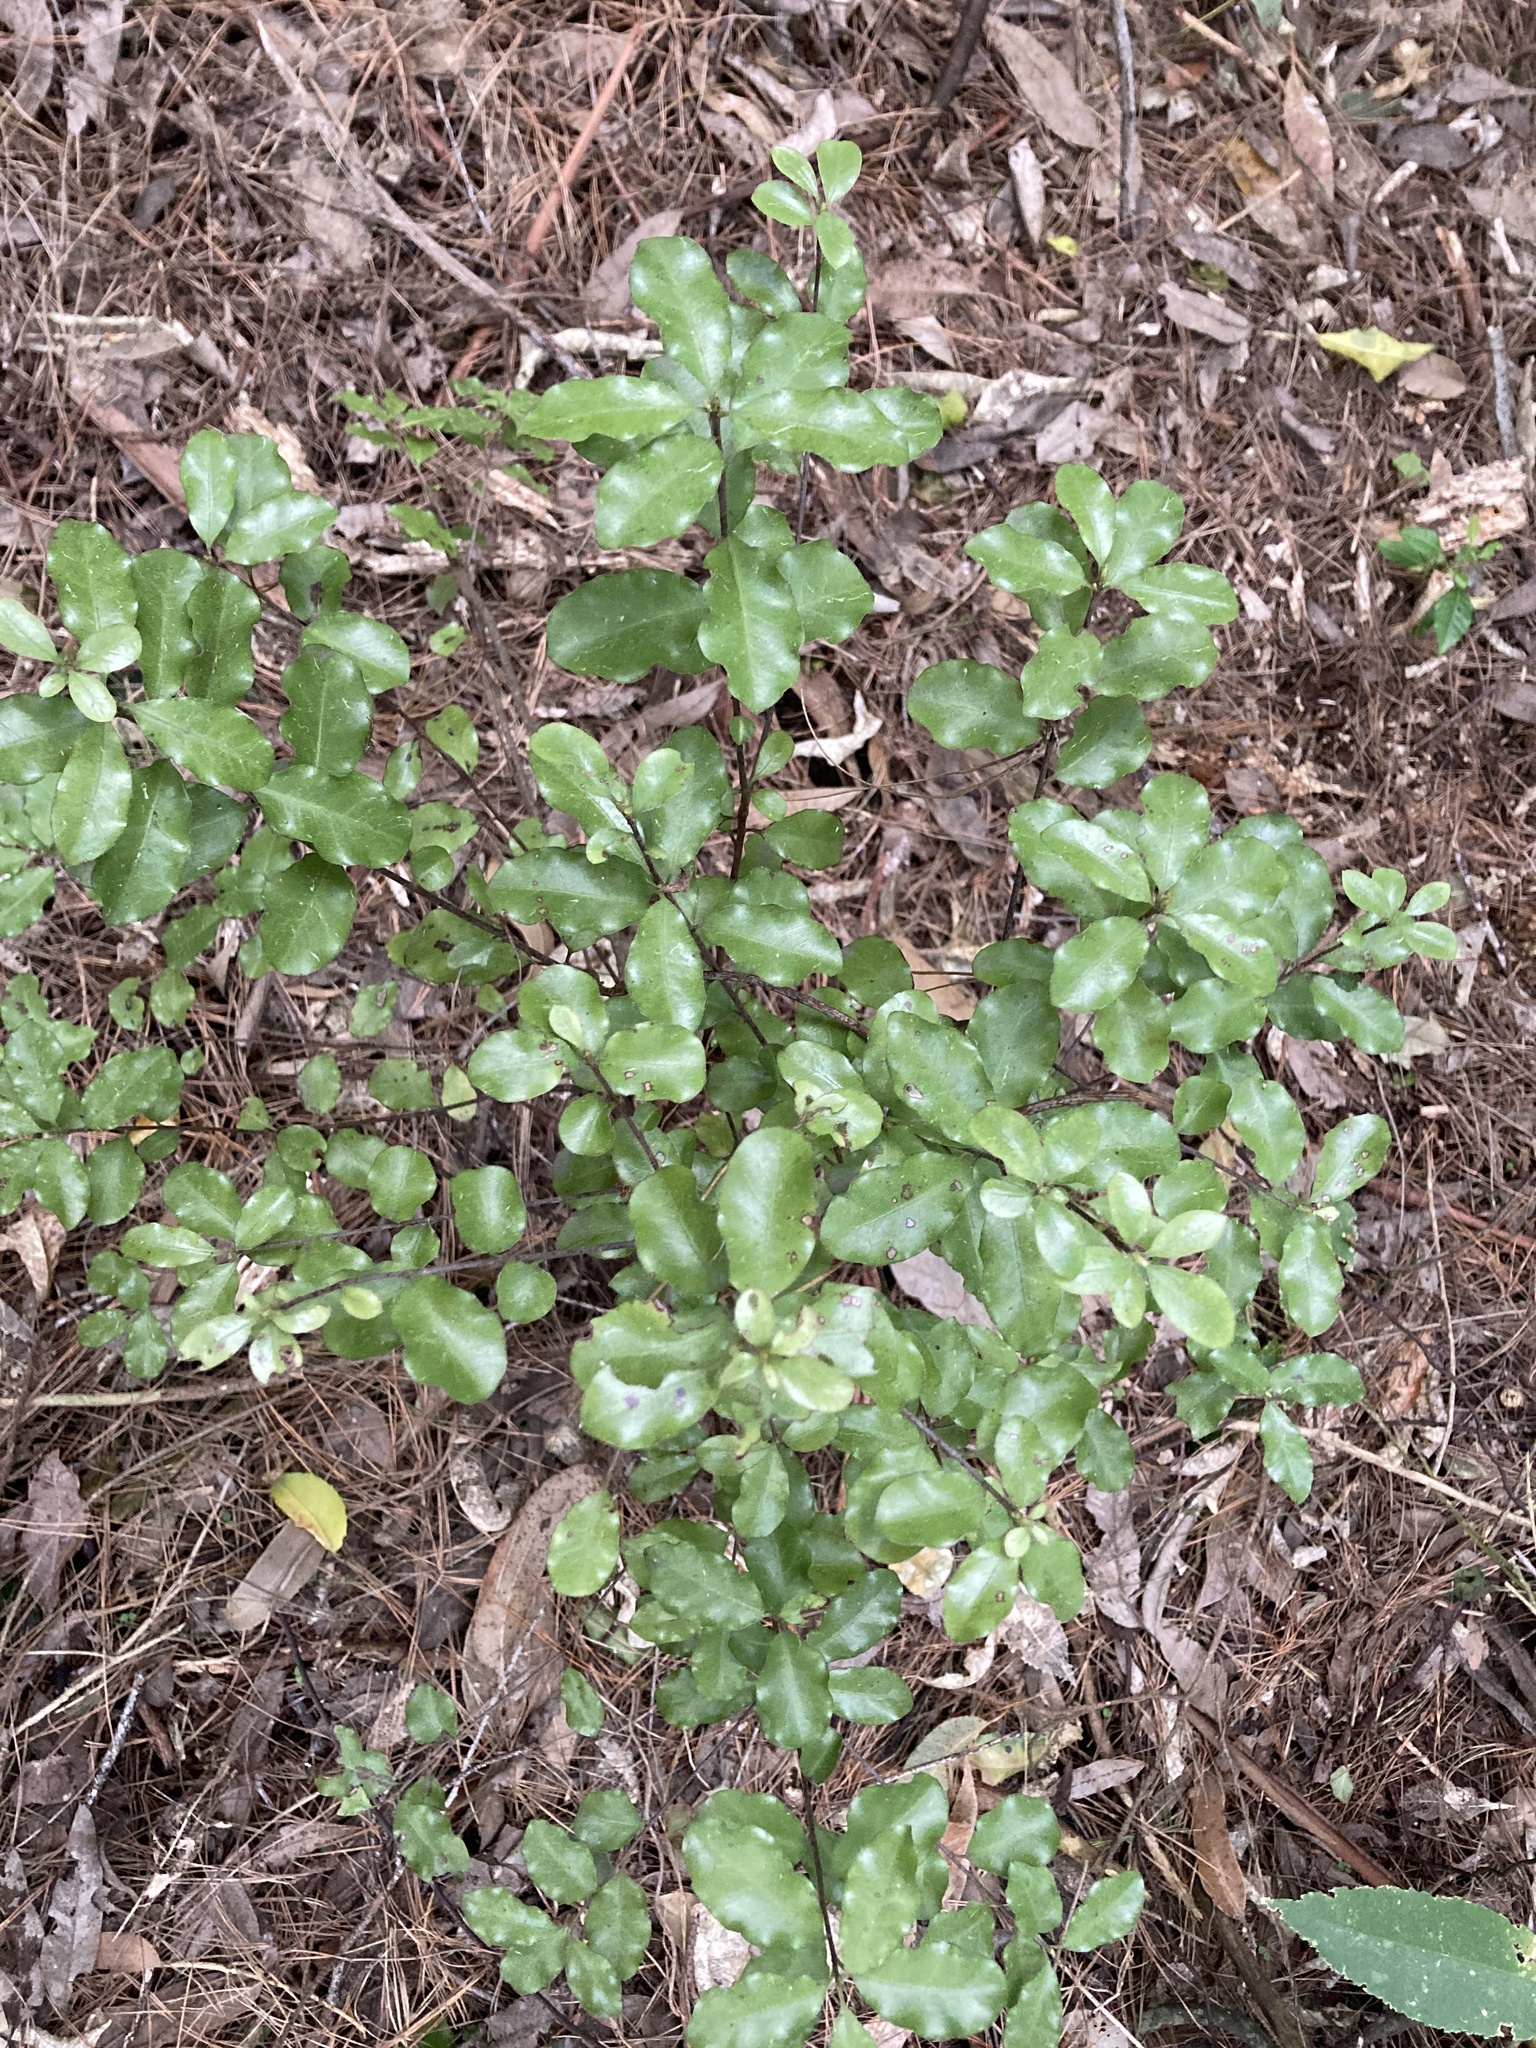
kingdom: Plantae
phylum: Tracheophyta
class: Magnoliopsida
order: Apiales
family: Pittosporaceae
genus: Pittosporum
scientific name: Pittosporum tenuifolium
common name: Kohuhu
